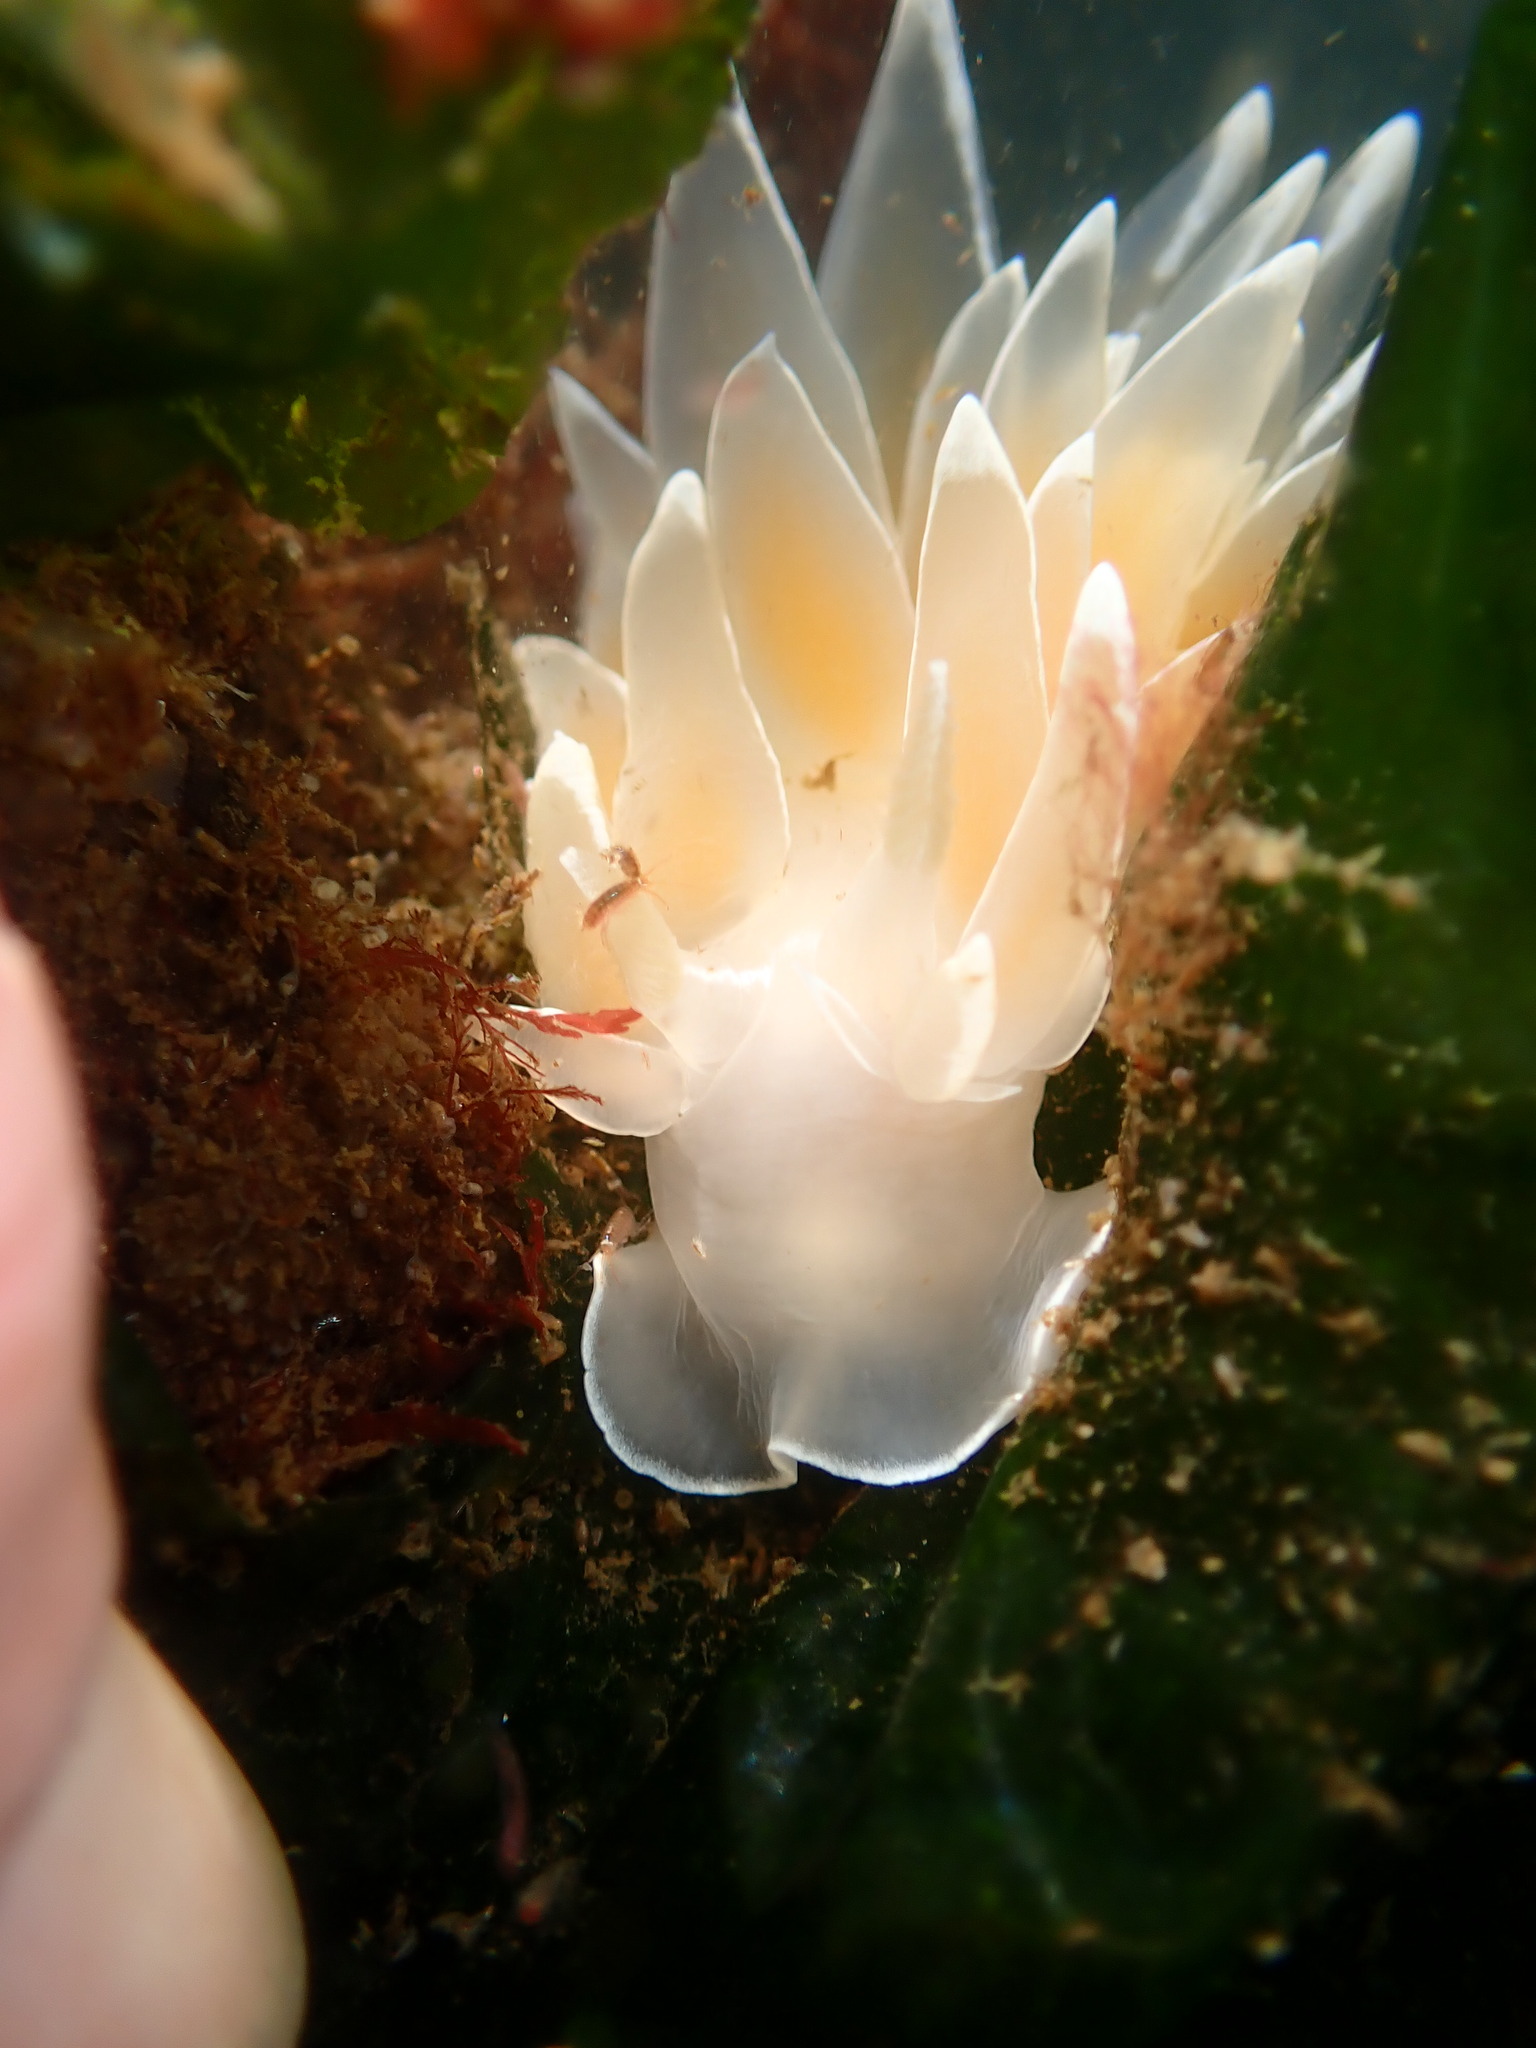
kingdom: Animalia
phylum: Mollusca
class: Gastropoda
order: Nudibranchia
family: Dironidae
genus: Dirona
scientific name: Dirona albolineata
